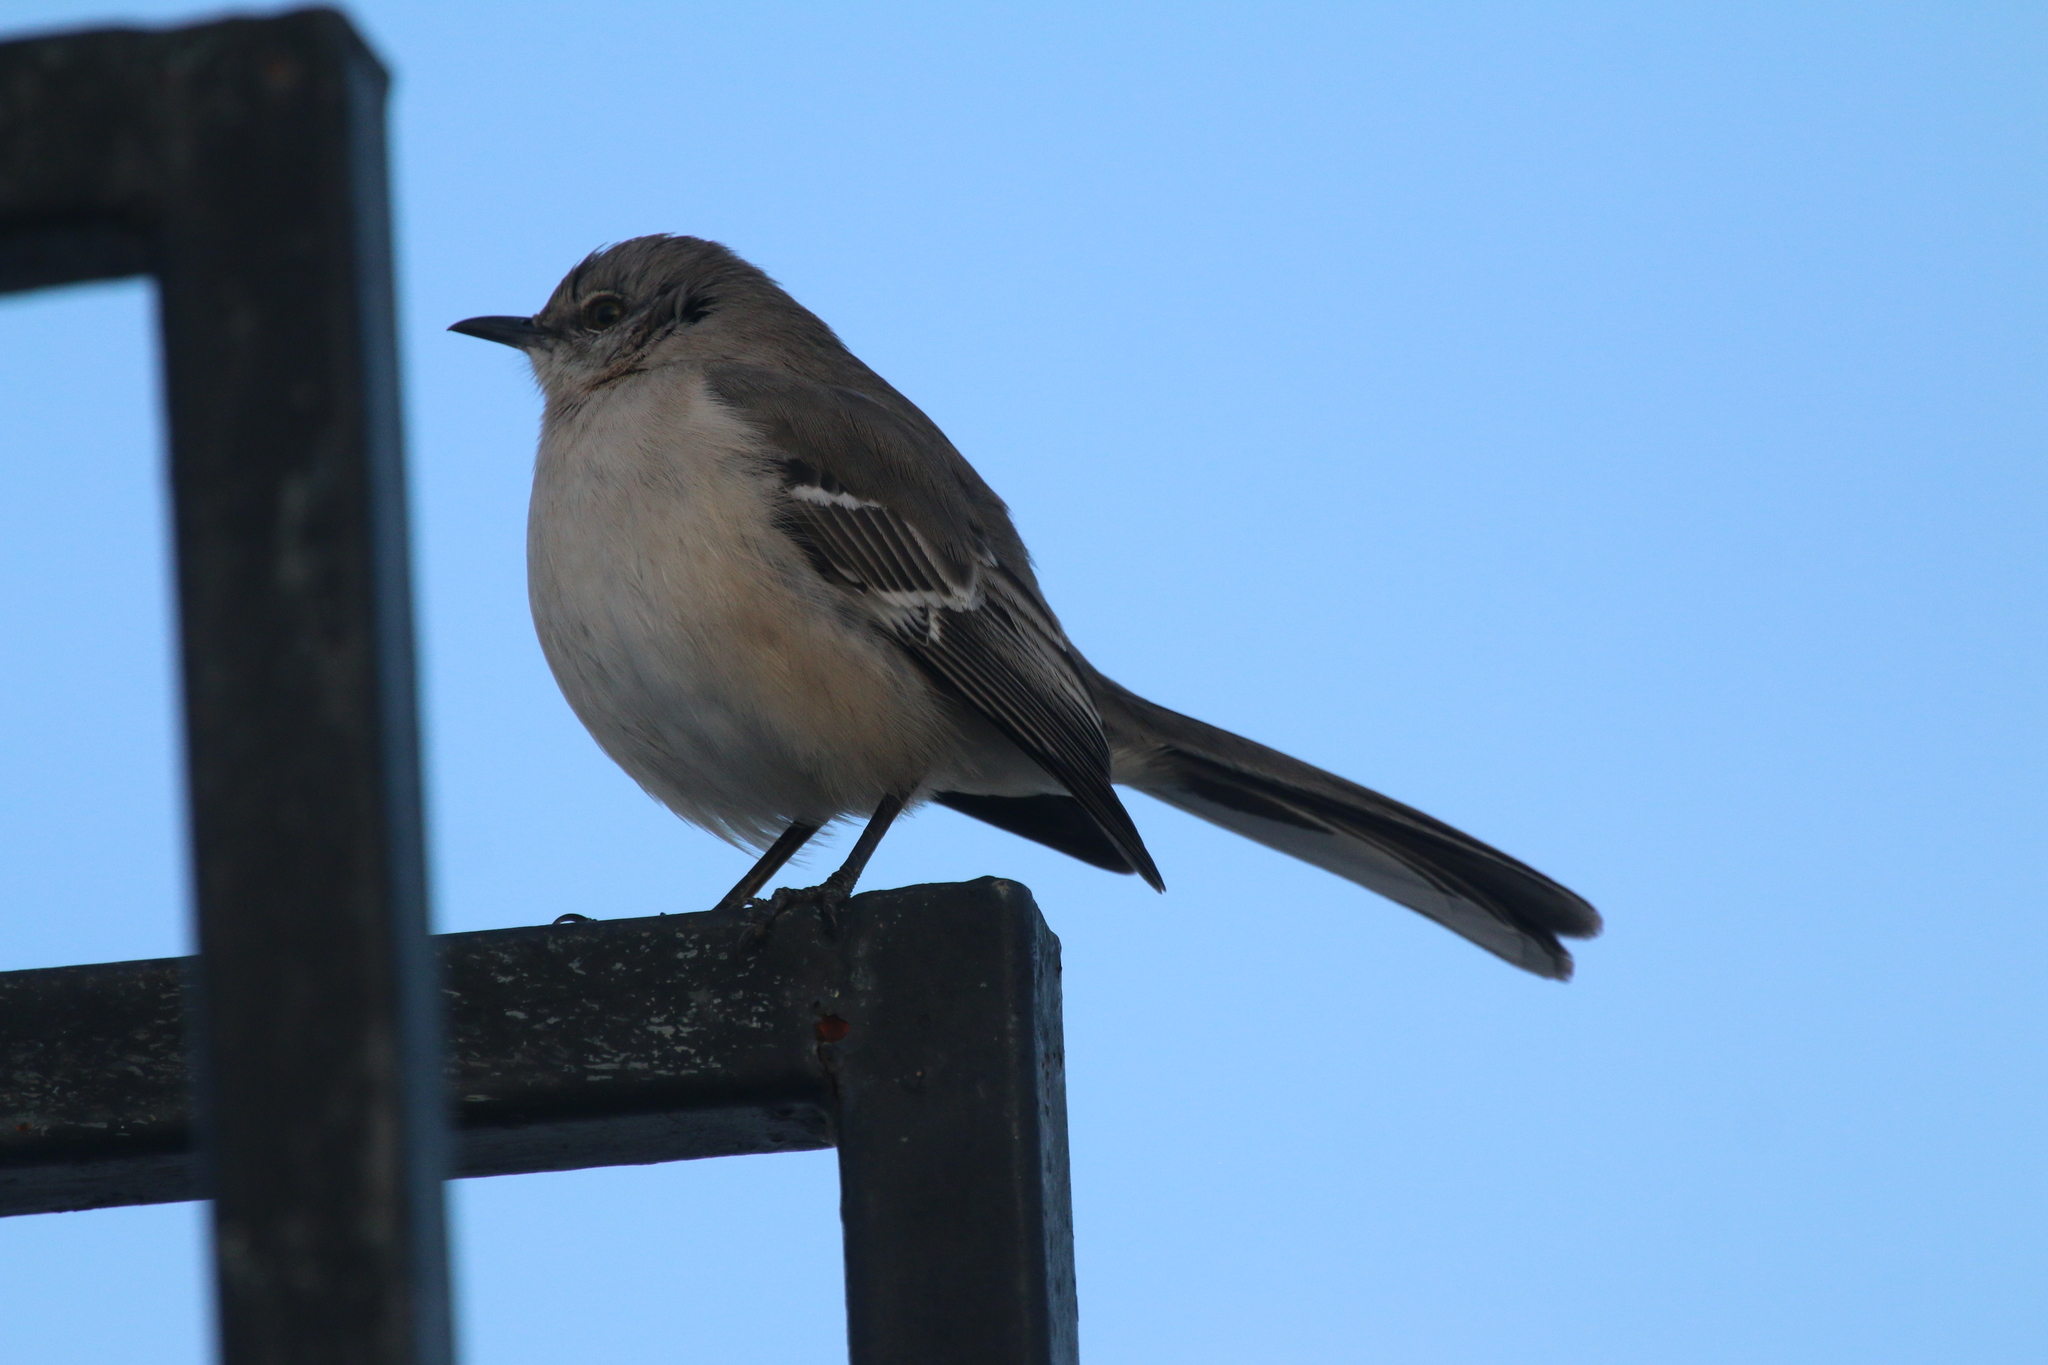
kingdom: Animalia
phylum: Chordata
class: Aves
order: Passeriformes
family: Mimidae
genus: Mimus
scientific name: Mimus polyglottos
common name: Northern mockingbird
